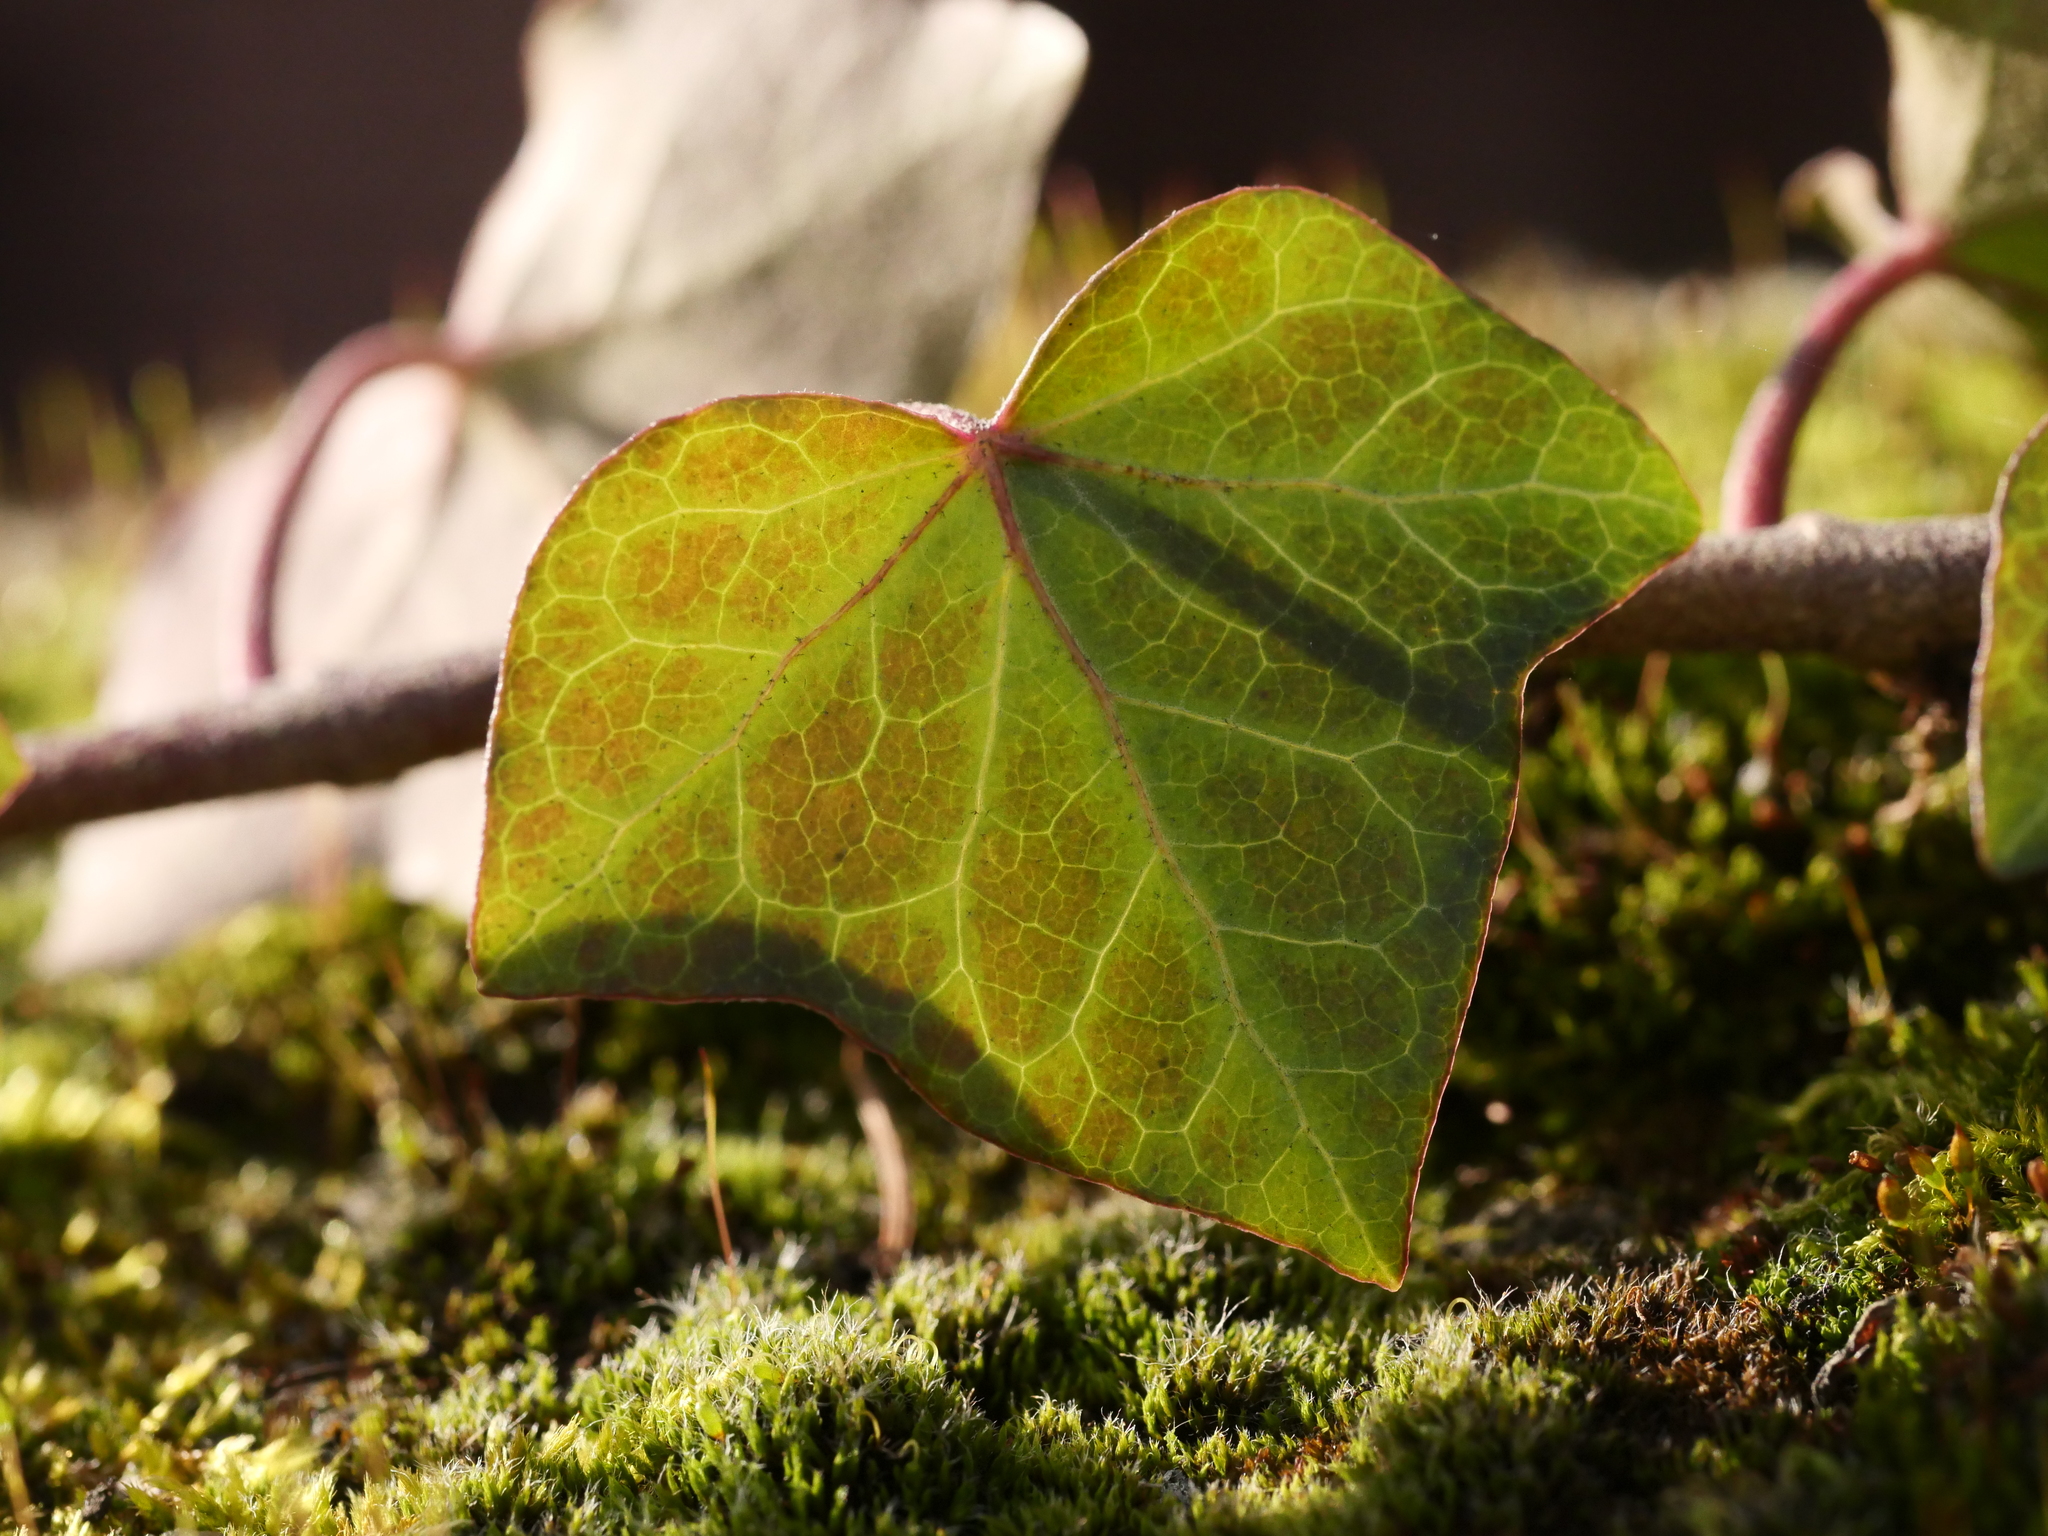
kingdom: Plantae
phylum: Tracheophyta
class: Magnoliopsida
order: Apiales
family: Araliaceae
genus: Hedera
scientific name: Hedera helix
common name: Ivy
